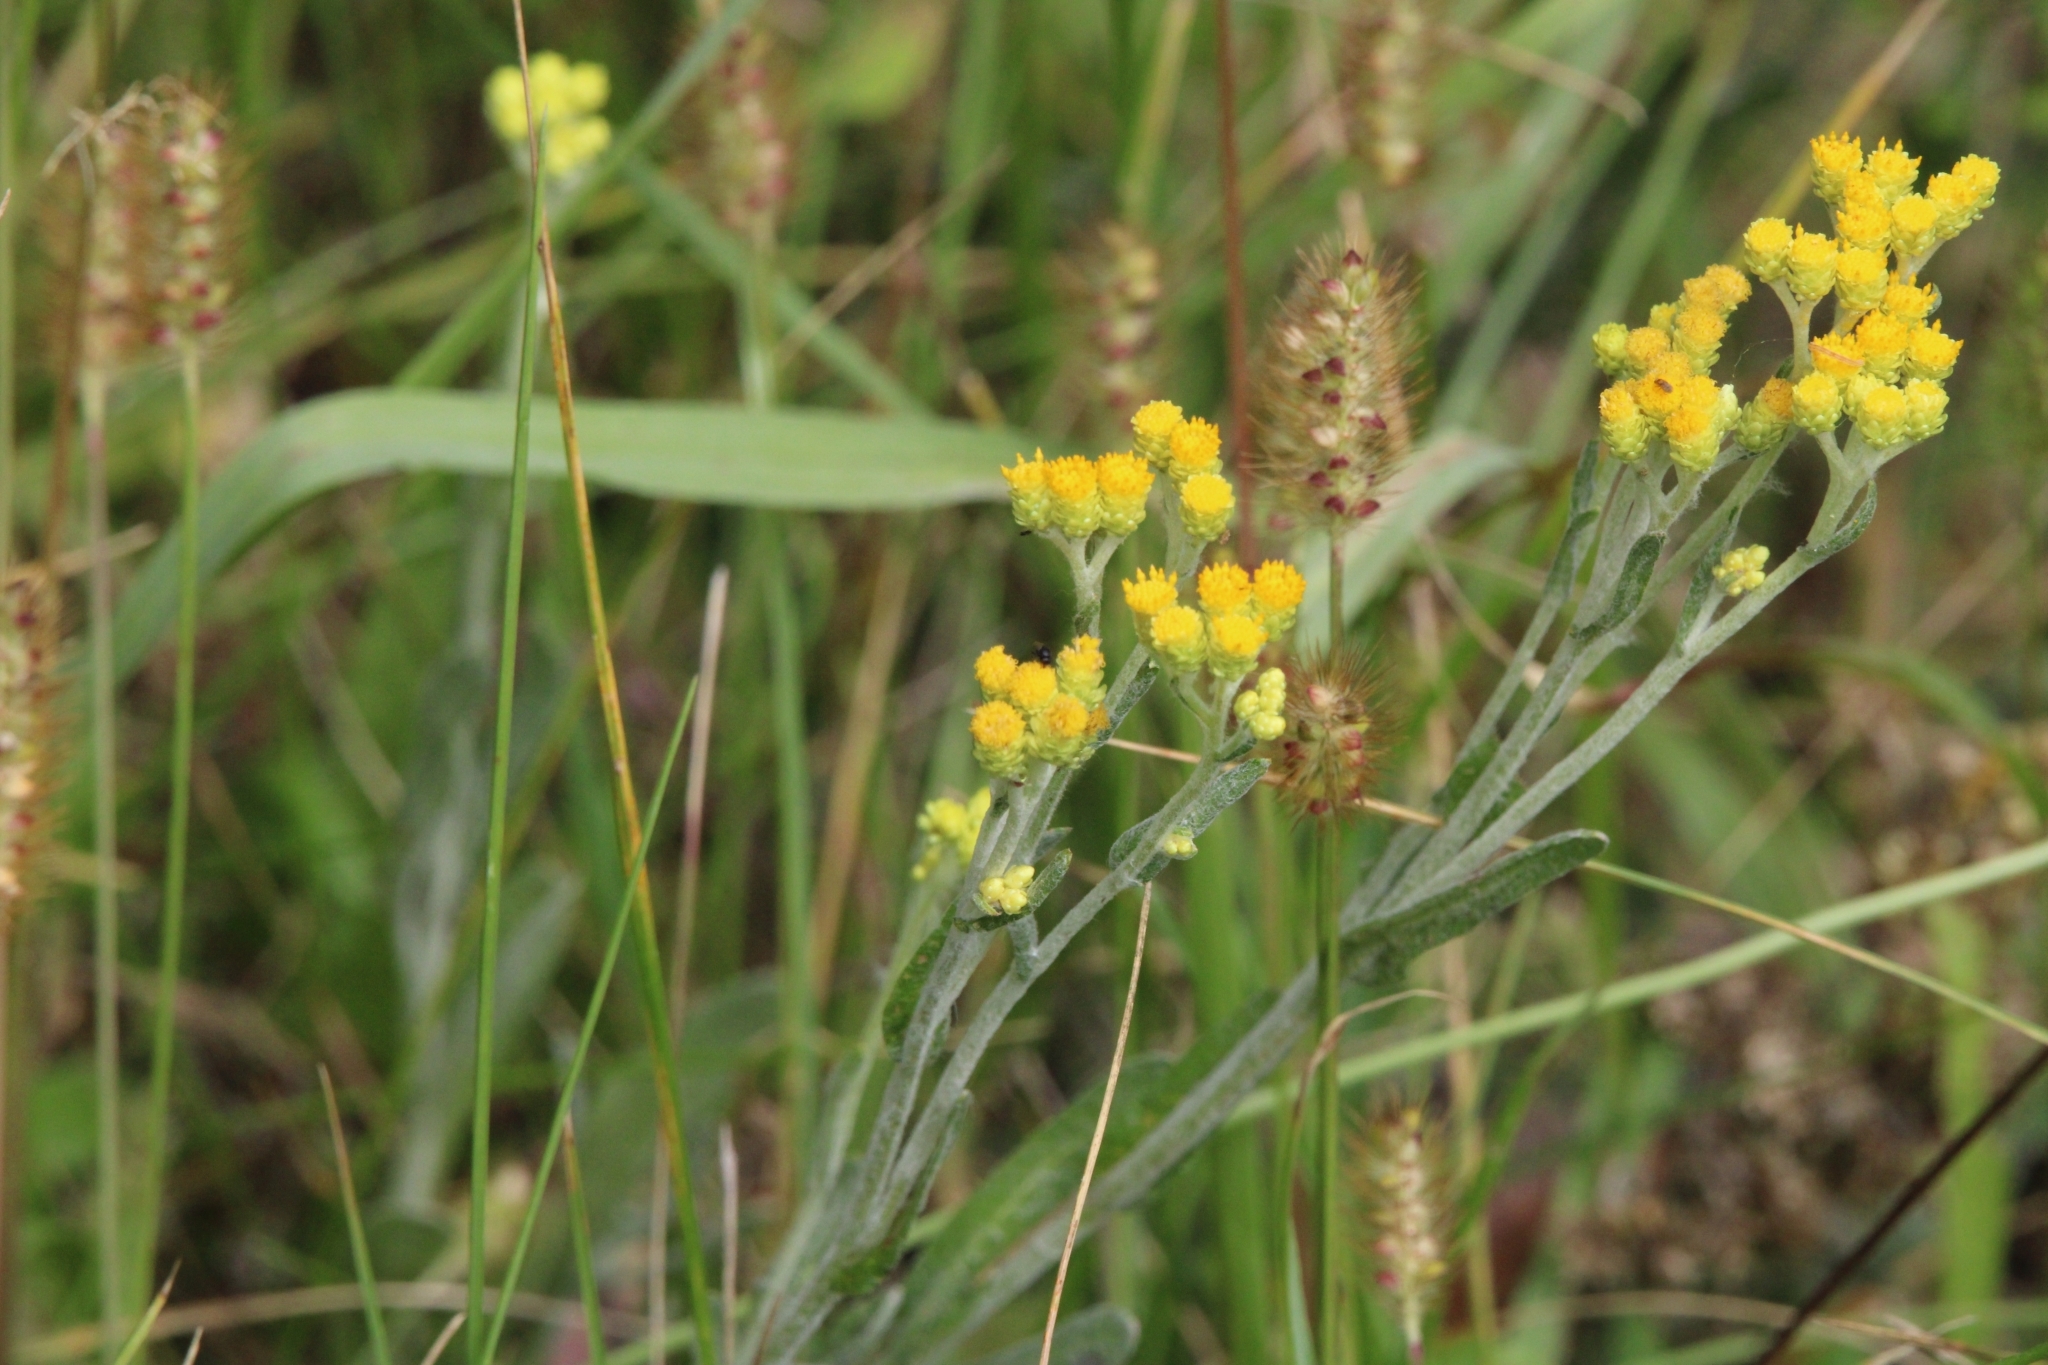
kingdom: Plantae
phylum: Tracheophyta
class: Magnoliopsida
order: Asterales
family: Asteraceae
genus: Helichrysum
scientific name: Helichrysum arenarium
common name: Strawflower
